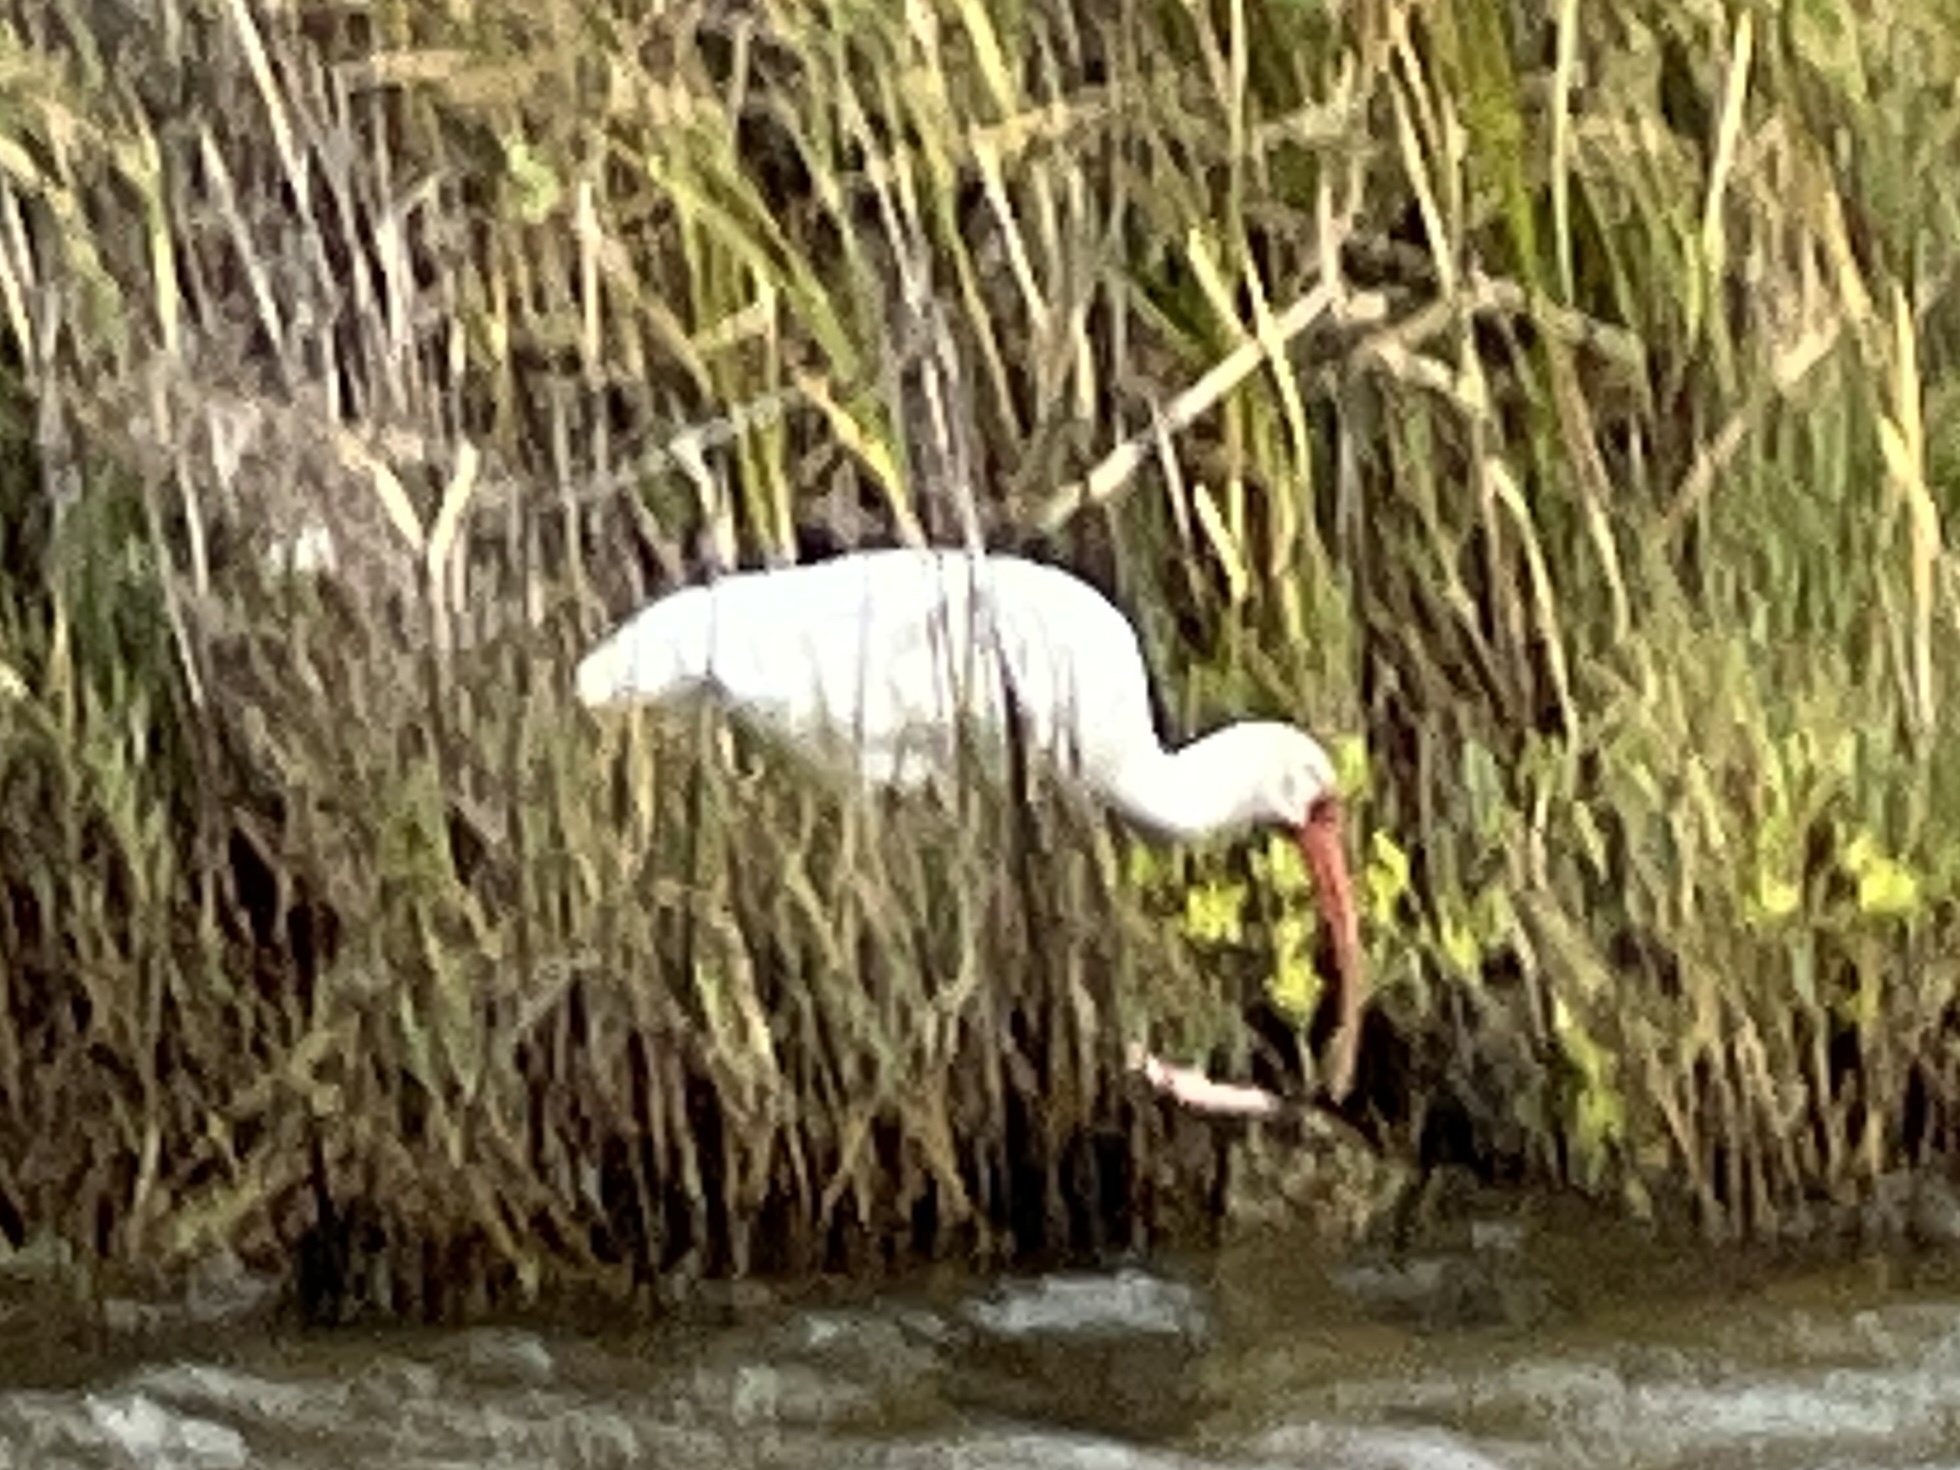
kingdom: Animalia
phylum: Chordata
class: Aves
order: Pelecaniformes
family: Threskiornithidae
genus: Eudocimus
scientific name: Eudocimus albus
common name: White ibis
